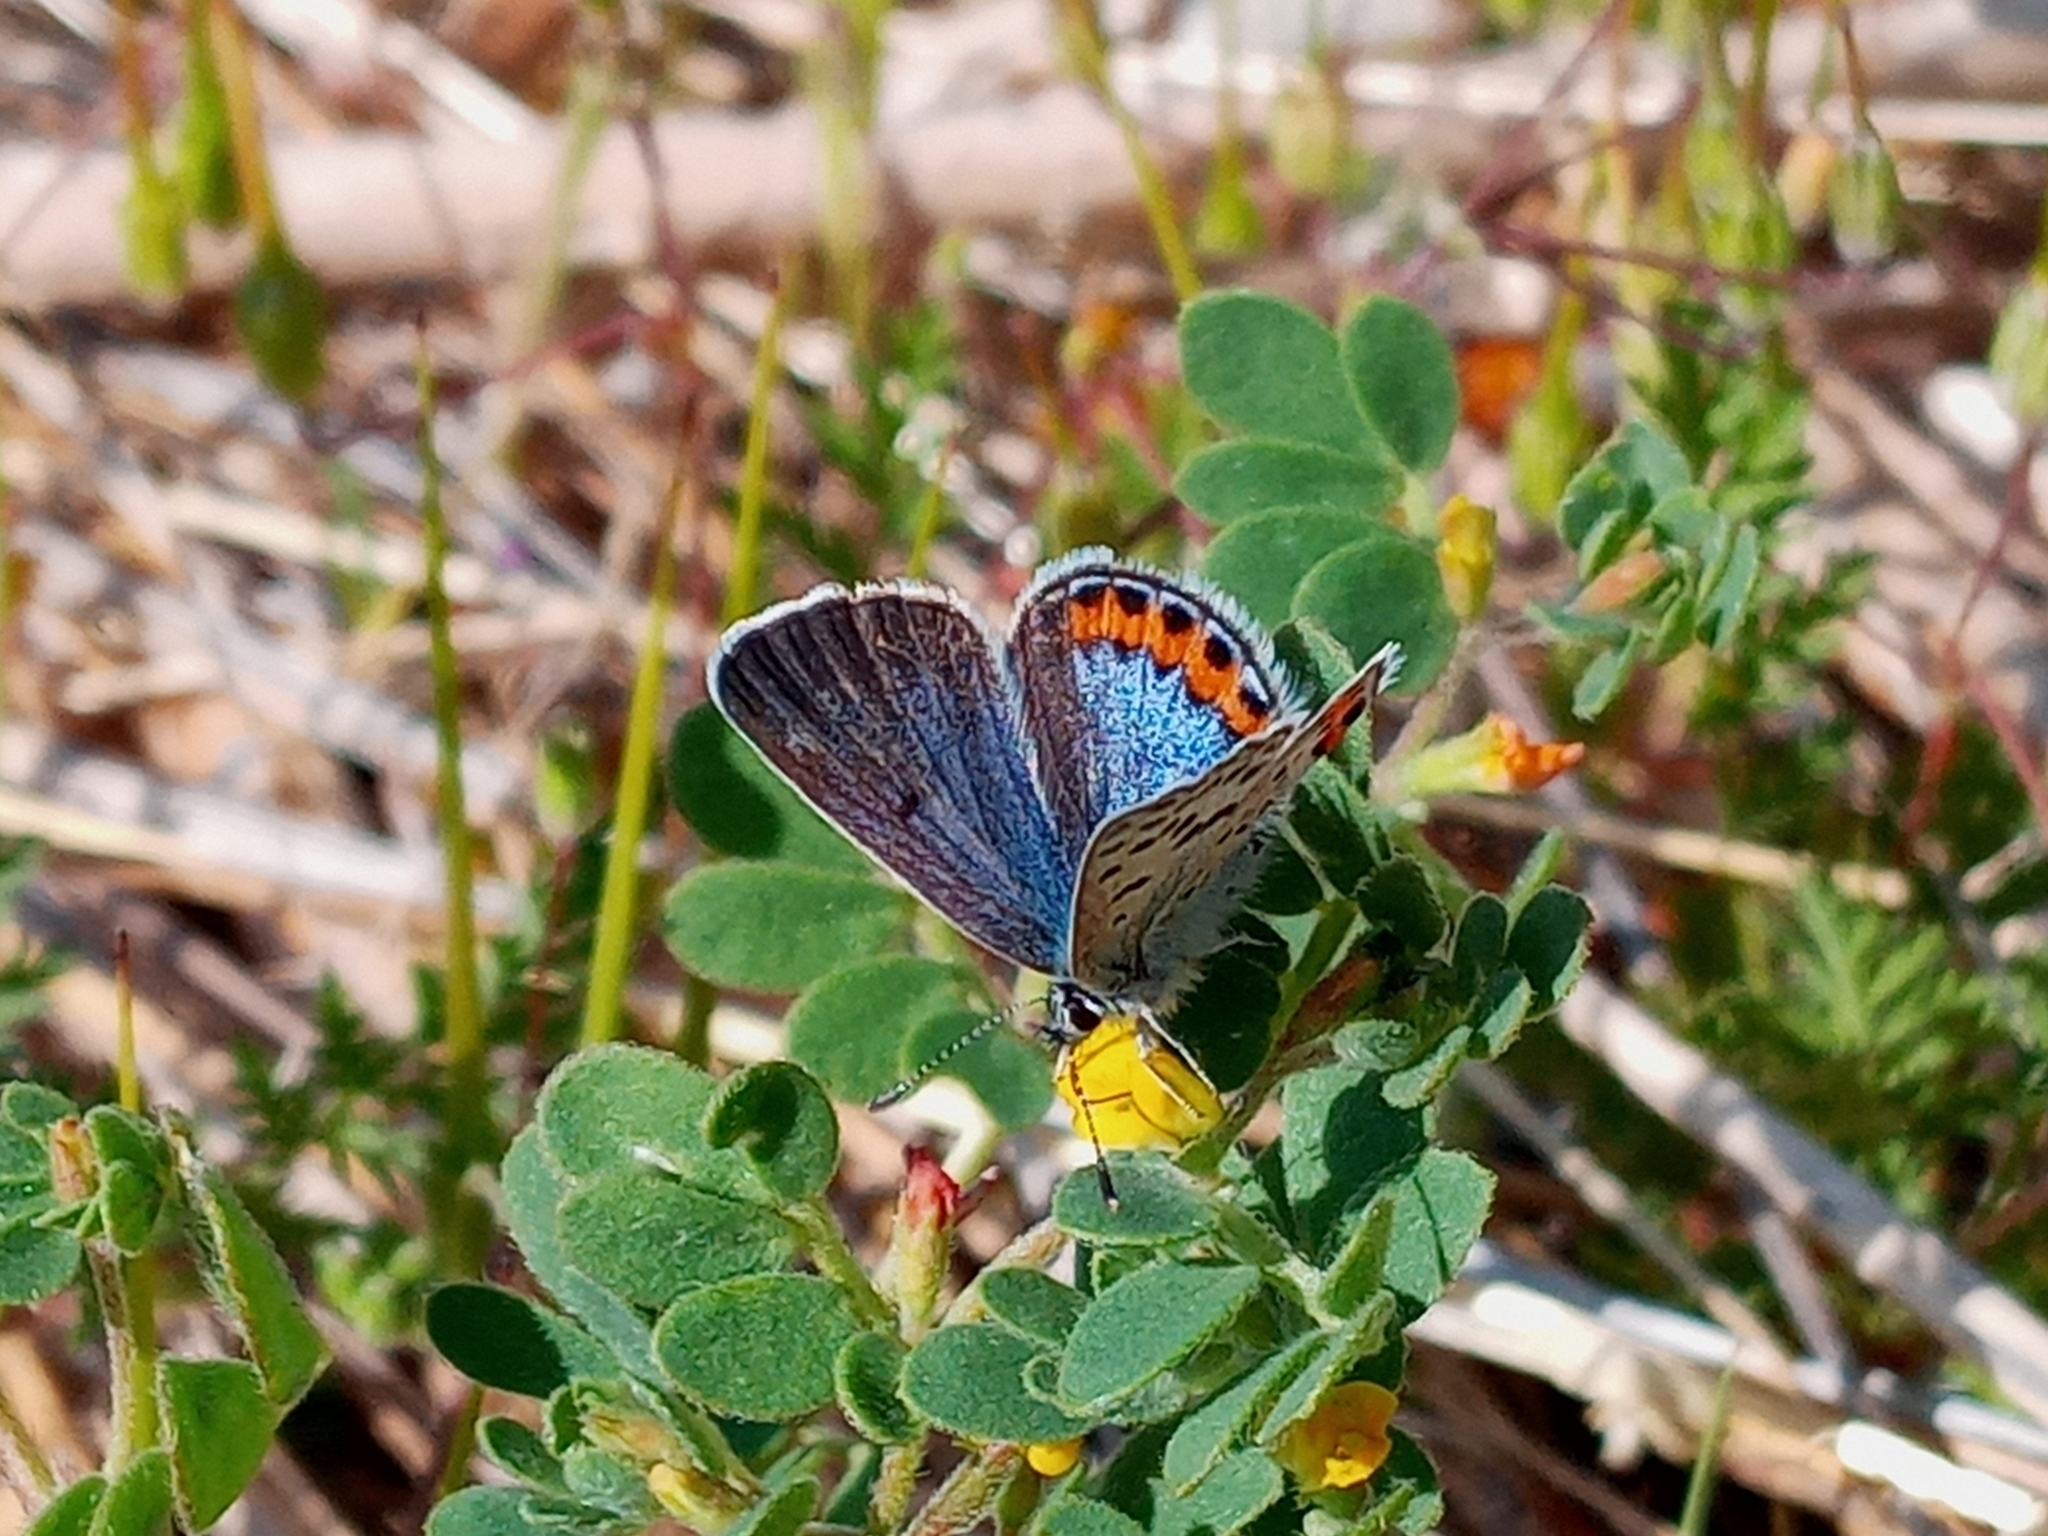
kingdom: Animalia
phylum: Arthropoda
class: Insecta
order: Lepidoptera
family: Lycaenidae
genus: Icaricia
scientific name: Icaricia lupini
